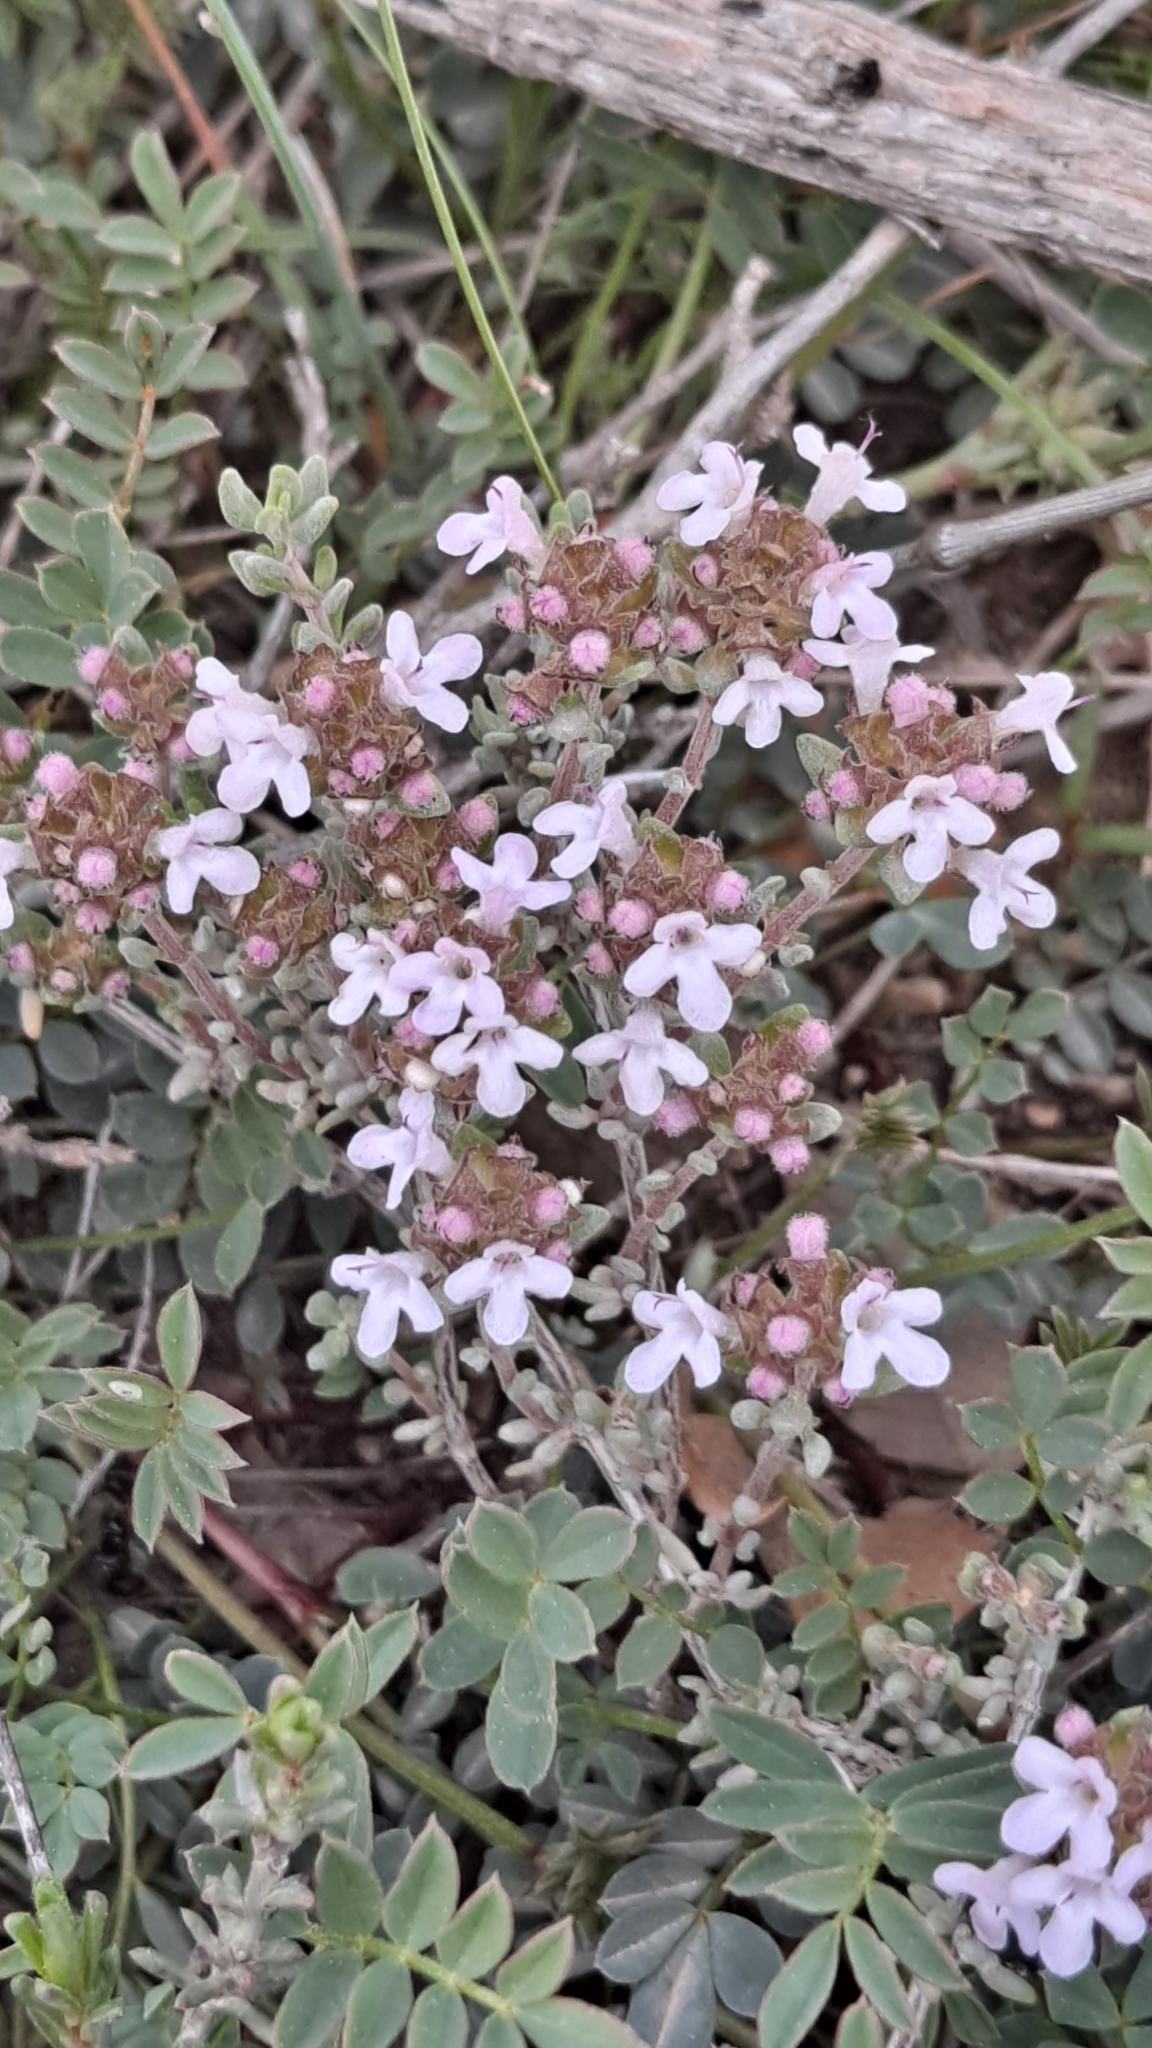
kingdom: Plantae
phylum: Tracheophyta
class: Magnoliopsida
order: Lamiales
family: Lamiaceae
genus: Thymus
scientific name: Thymus vulgaris
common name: Garden thyme
